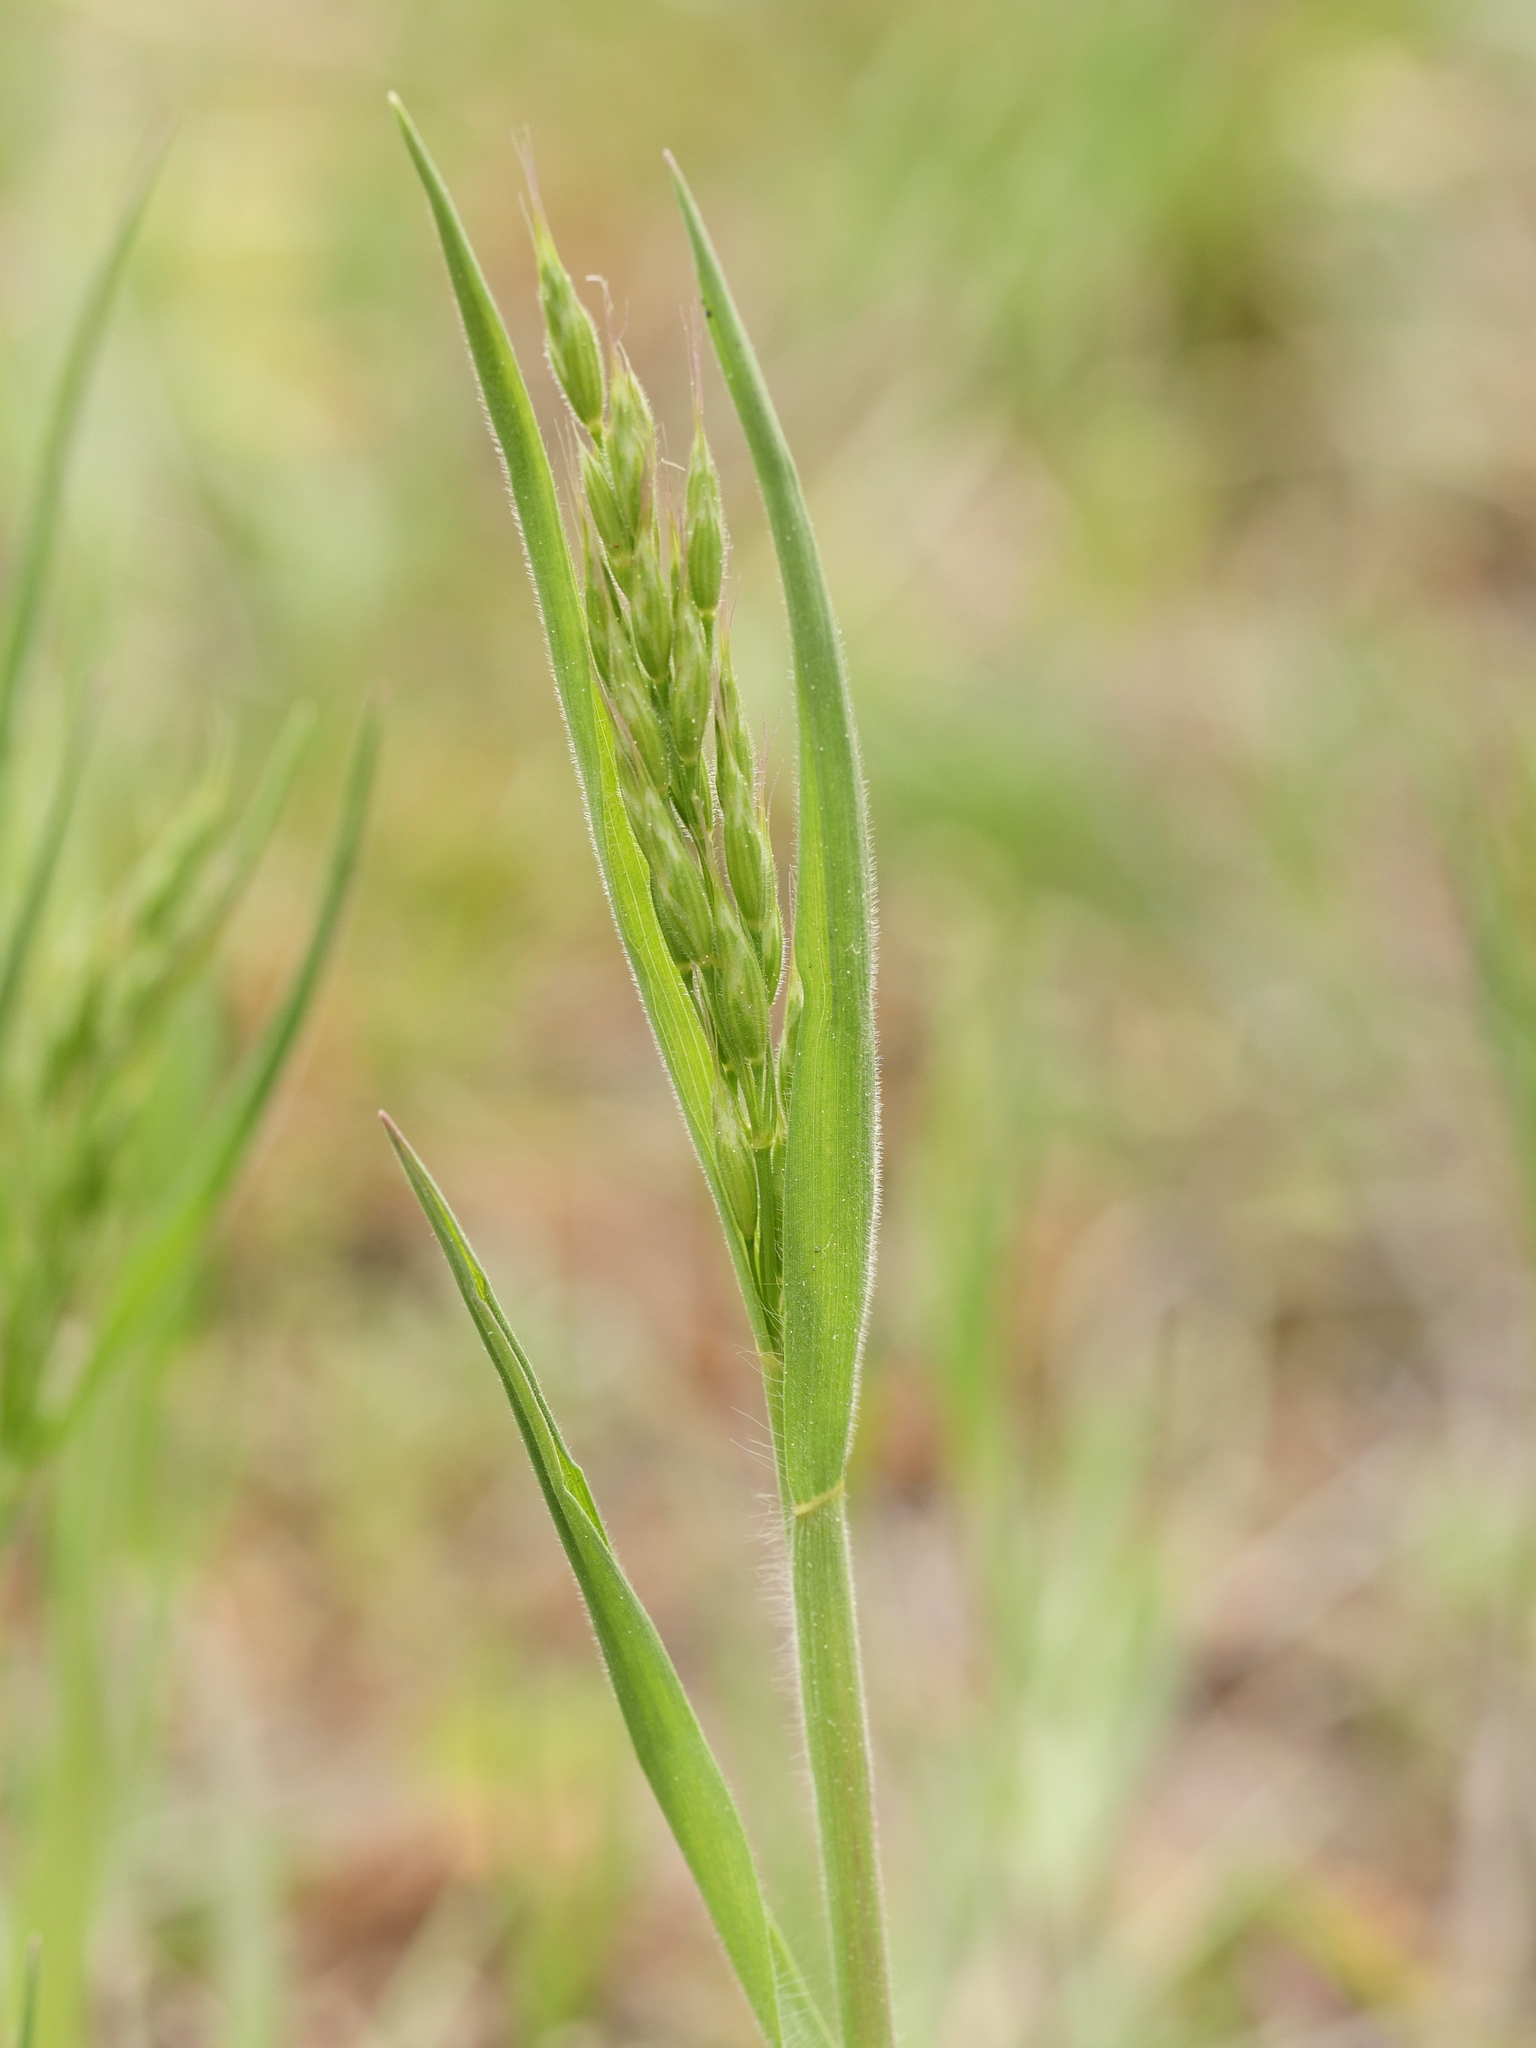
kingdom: Plantae
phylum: Tracheophyta
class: Liliopsida
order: Poales
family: Poaceae
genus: Bromus
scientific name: Bromus hordeaceus
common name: Soft brome
